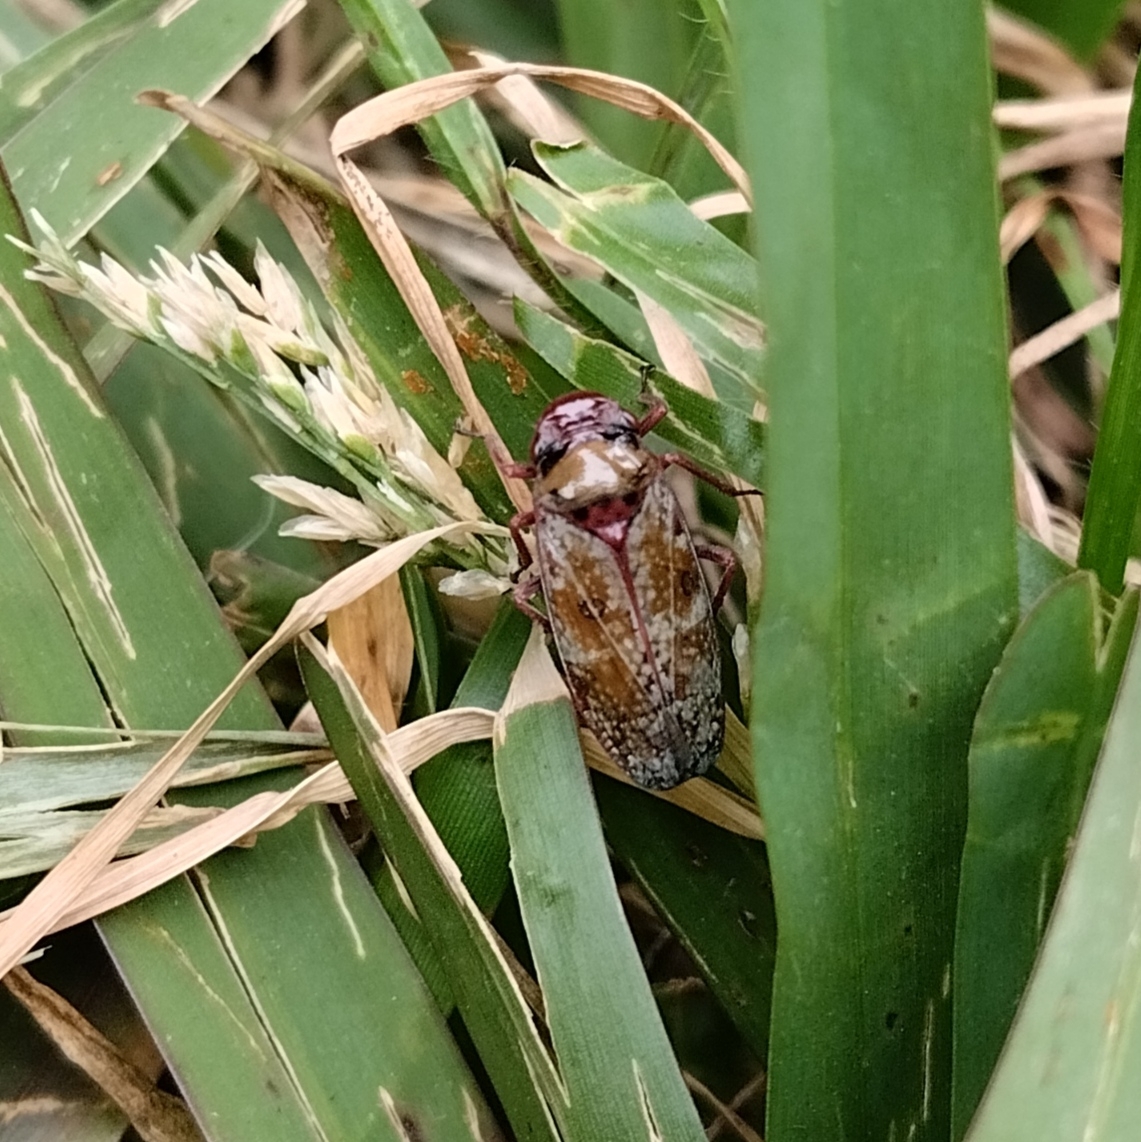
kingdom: Animalia
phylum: Arthropoda
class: Insecta
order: Hemiptera
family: Cicadellidae
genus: Paracatua
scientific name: Paracatua rubrolimbata
